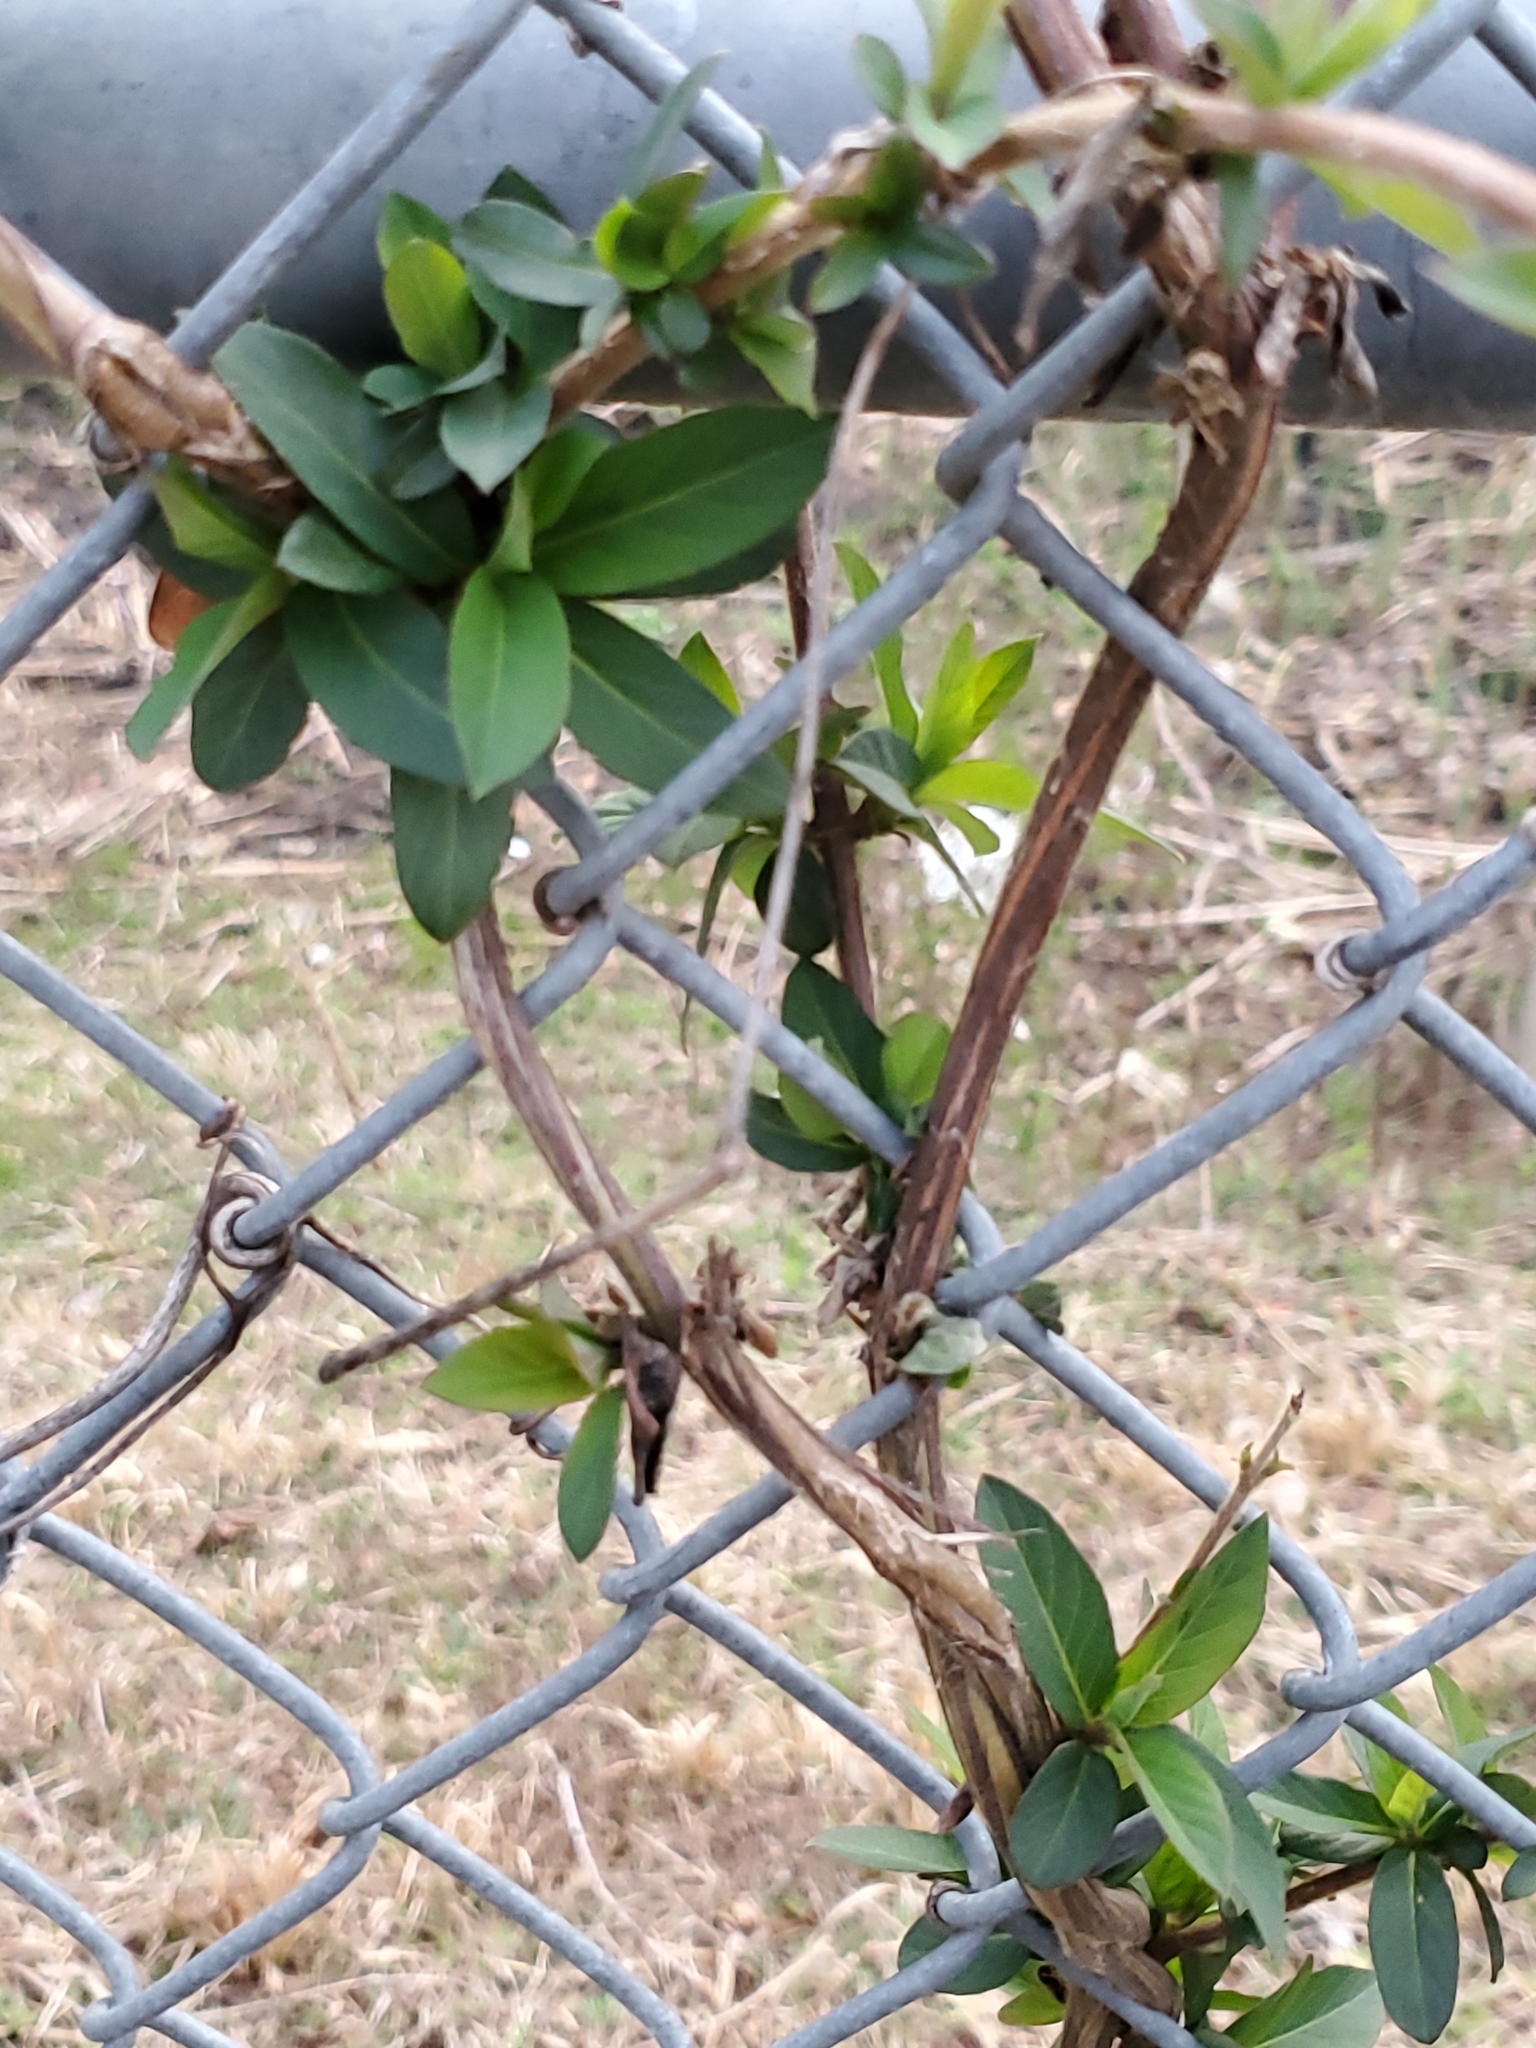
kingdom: Plantae
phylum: Tracheophyta
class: Magnoliopsida
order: Dipsacales
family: Caprifoliaceae
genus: Lonicera
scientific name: Lonicera japonica
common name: Japanese honeysuckle
